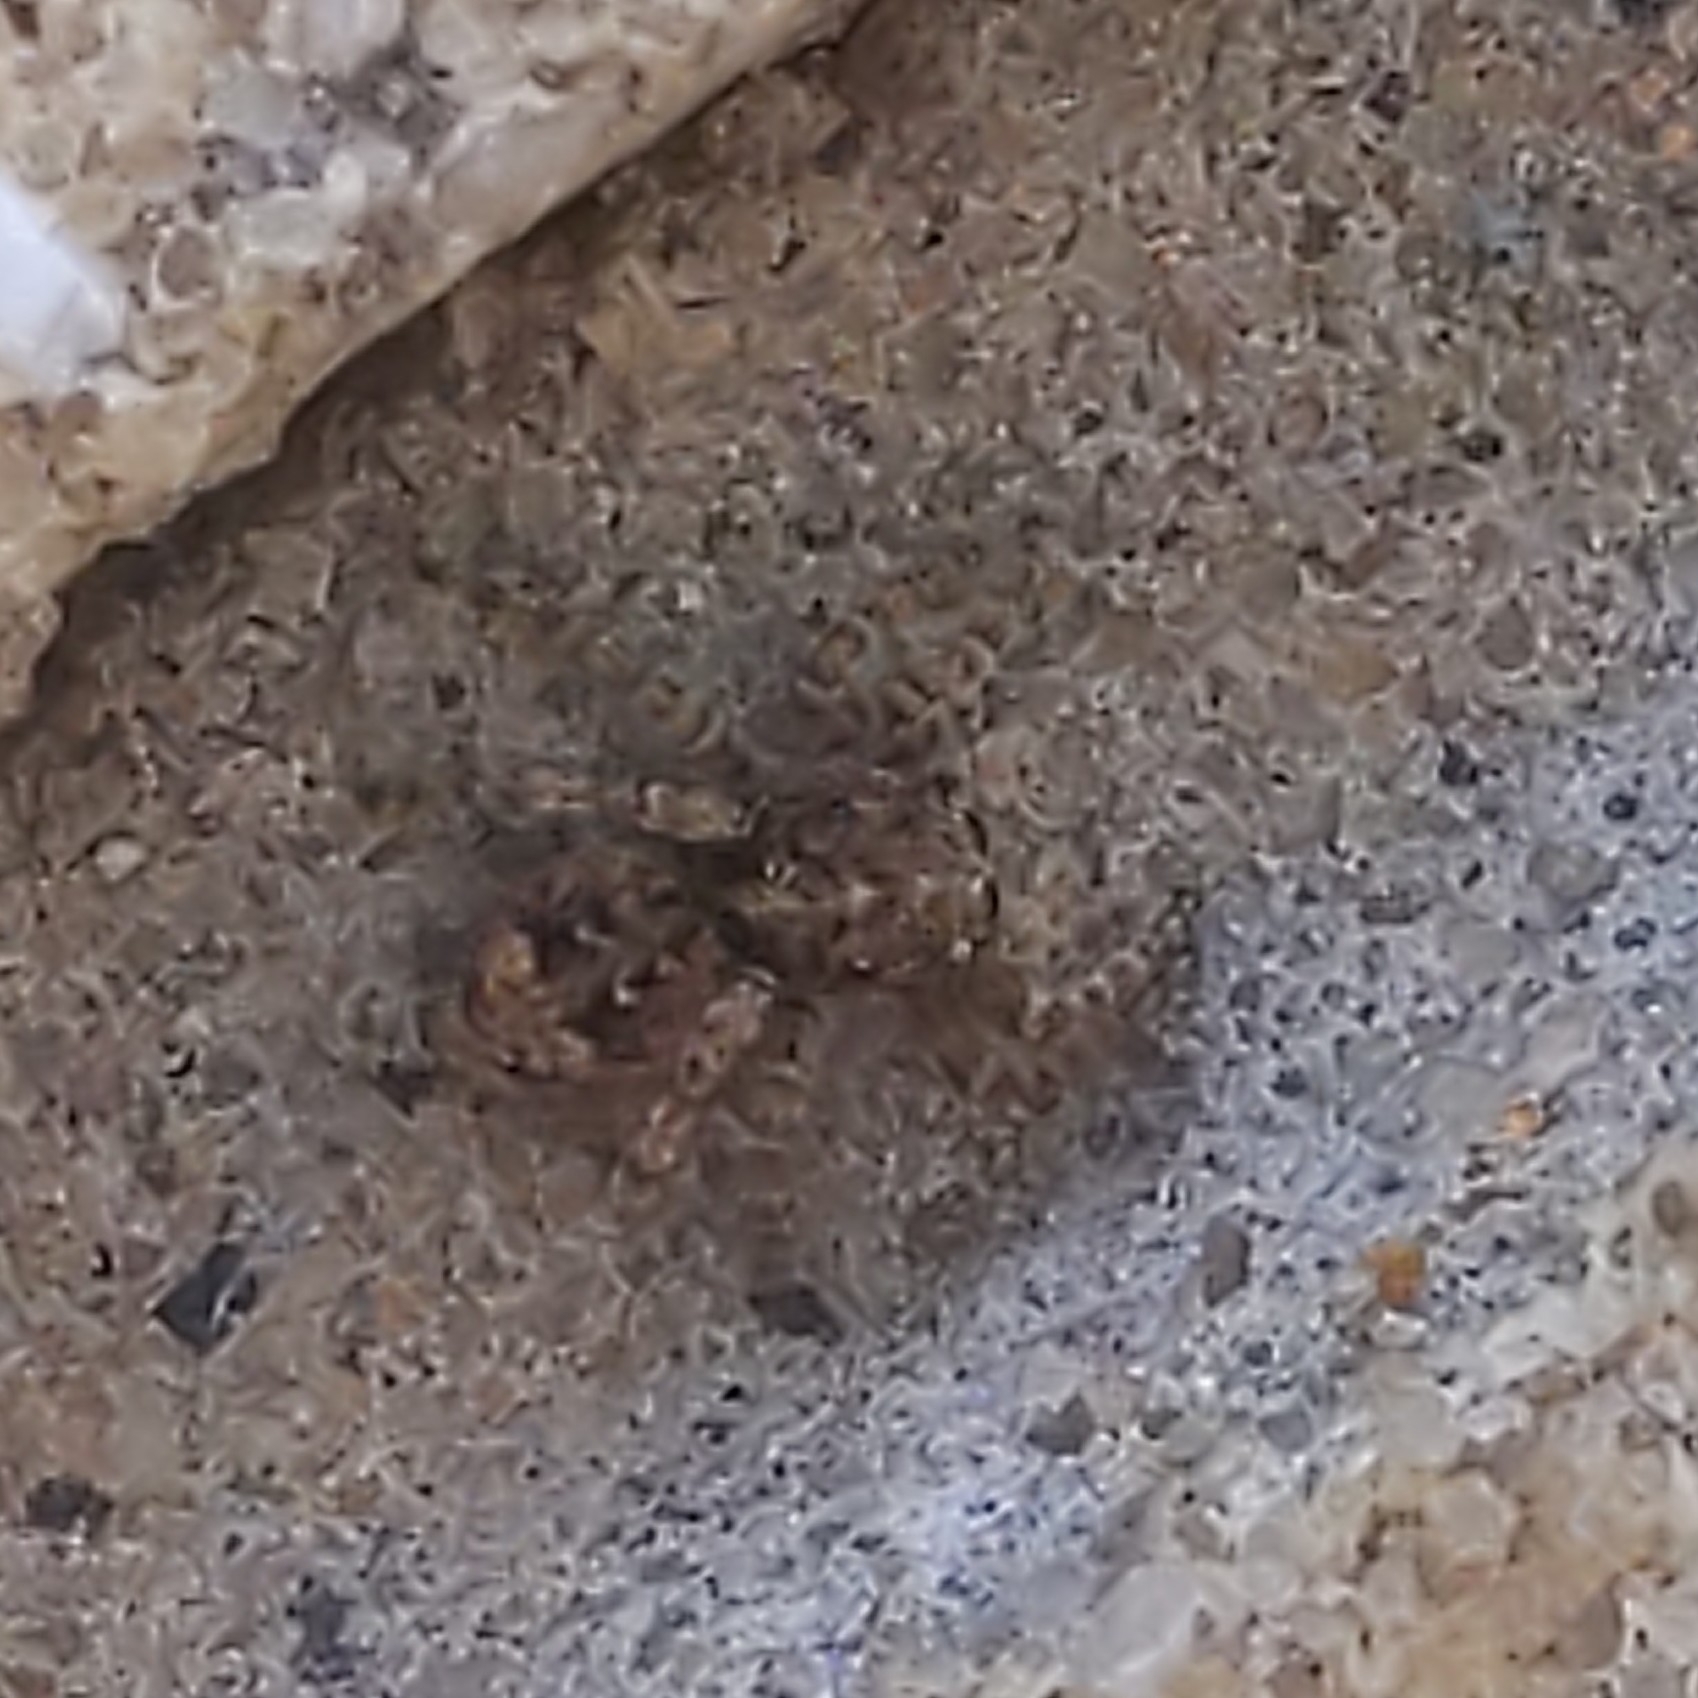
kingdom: Animalia
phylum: Arthropoda
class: Arachnida
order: Araneae
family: Salticidae
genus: Attulus
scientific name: Attulus fasciger
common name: Asiatic wall jumping spider
